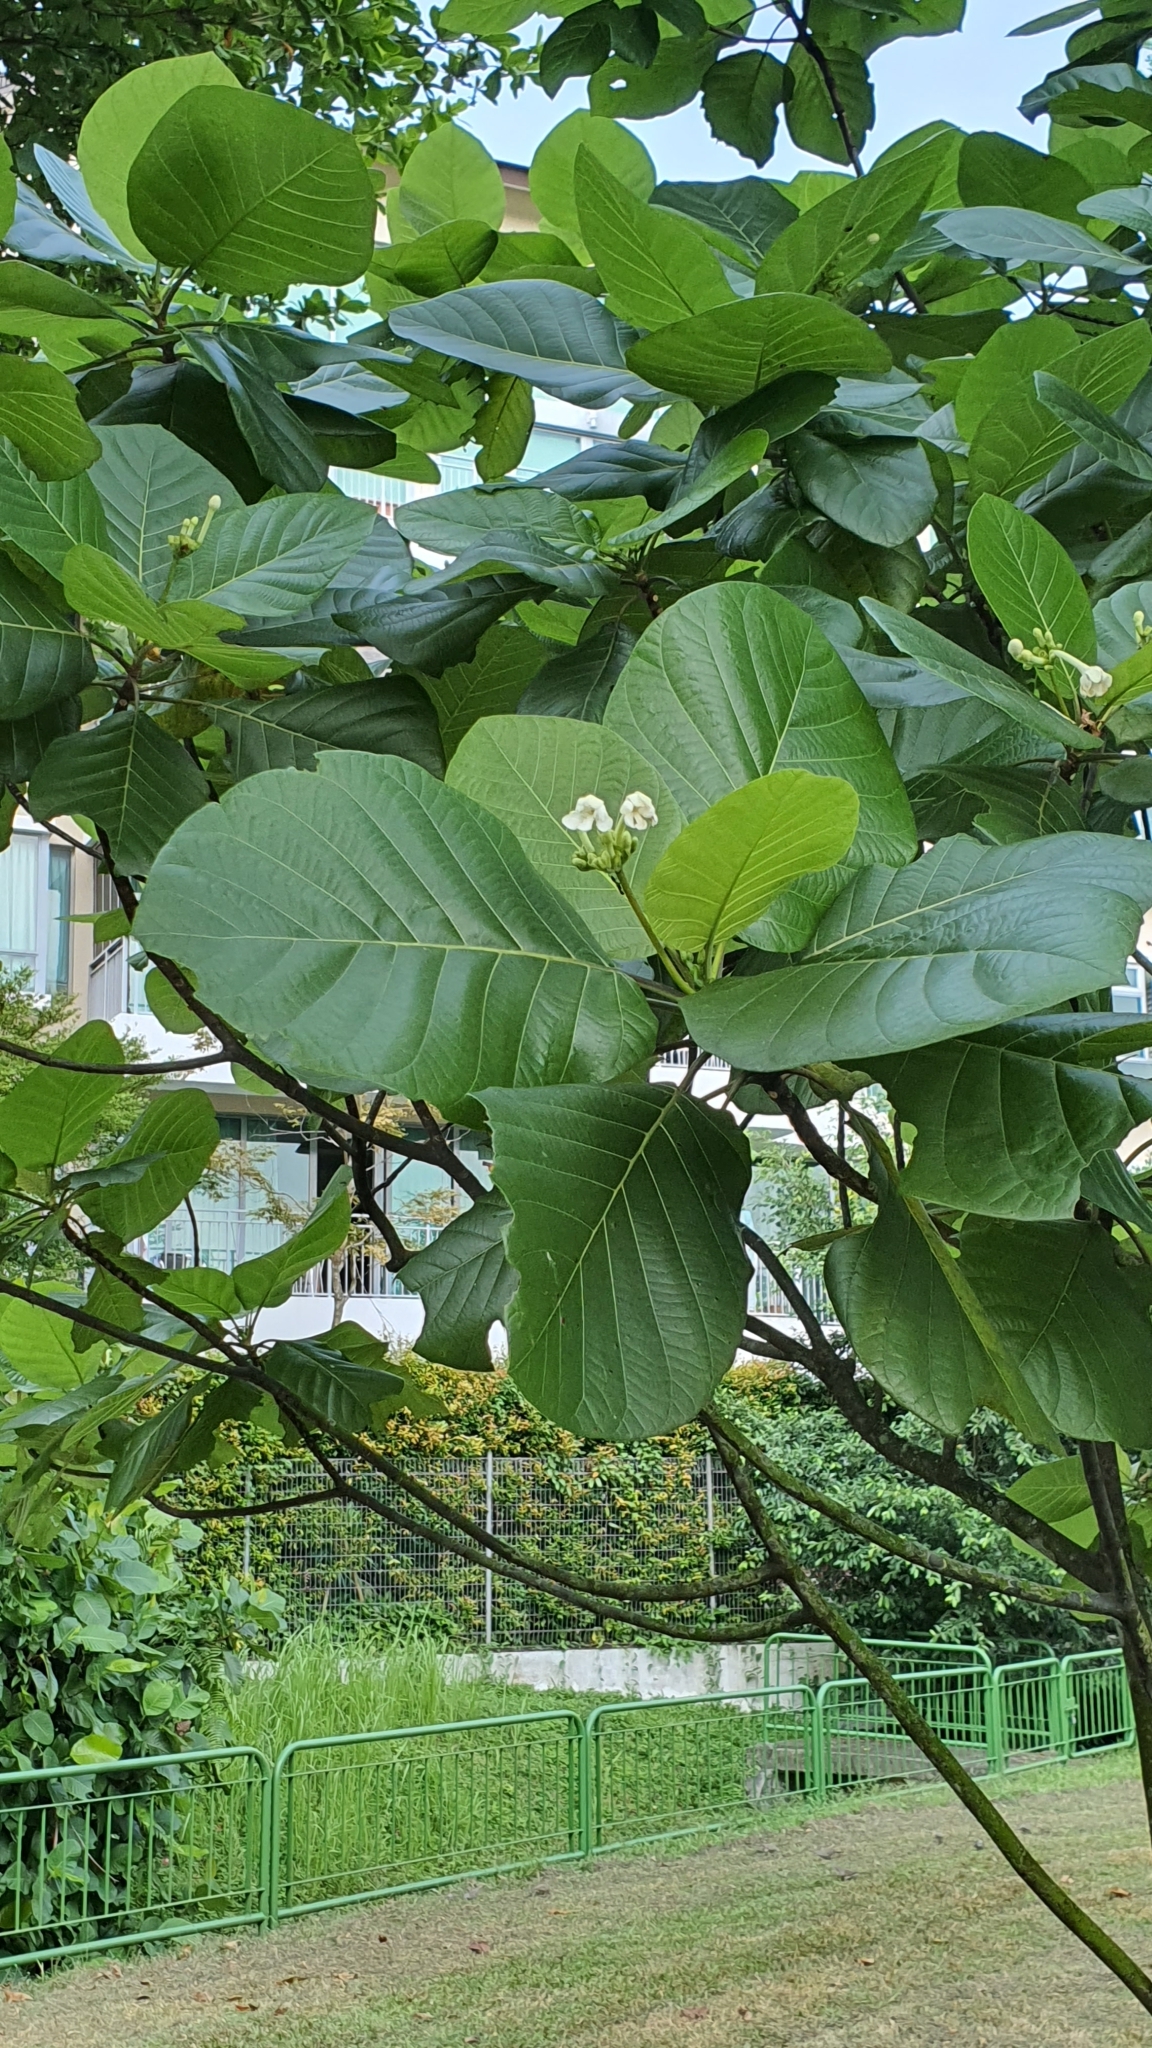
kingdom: Plantae
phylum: Tracheophyta
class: Magnoliopsida
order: Gentianales
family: Rubiaceae
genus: Guettarda
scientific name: Guettarda speciosa
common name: Sea randa
